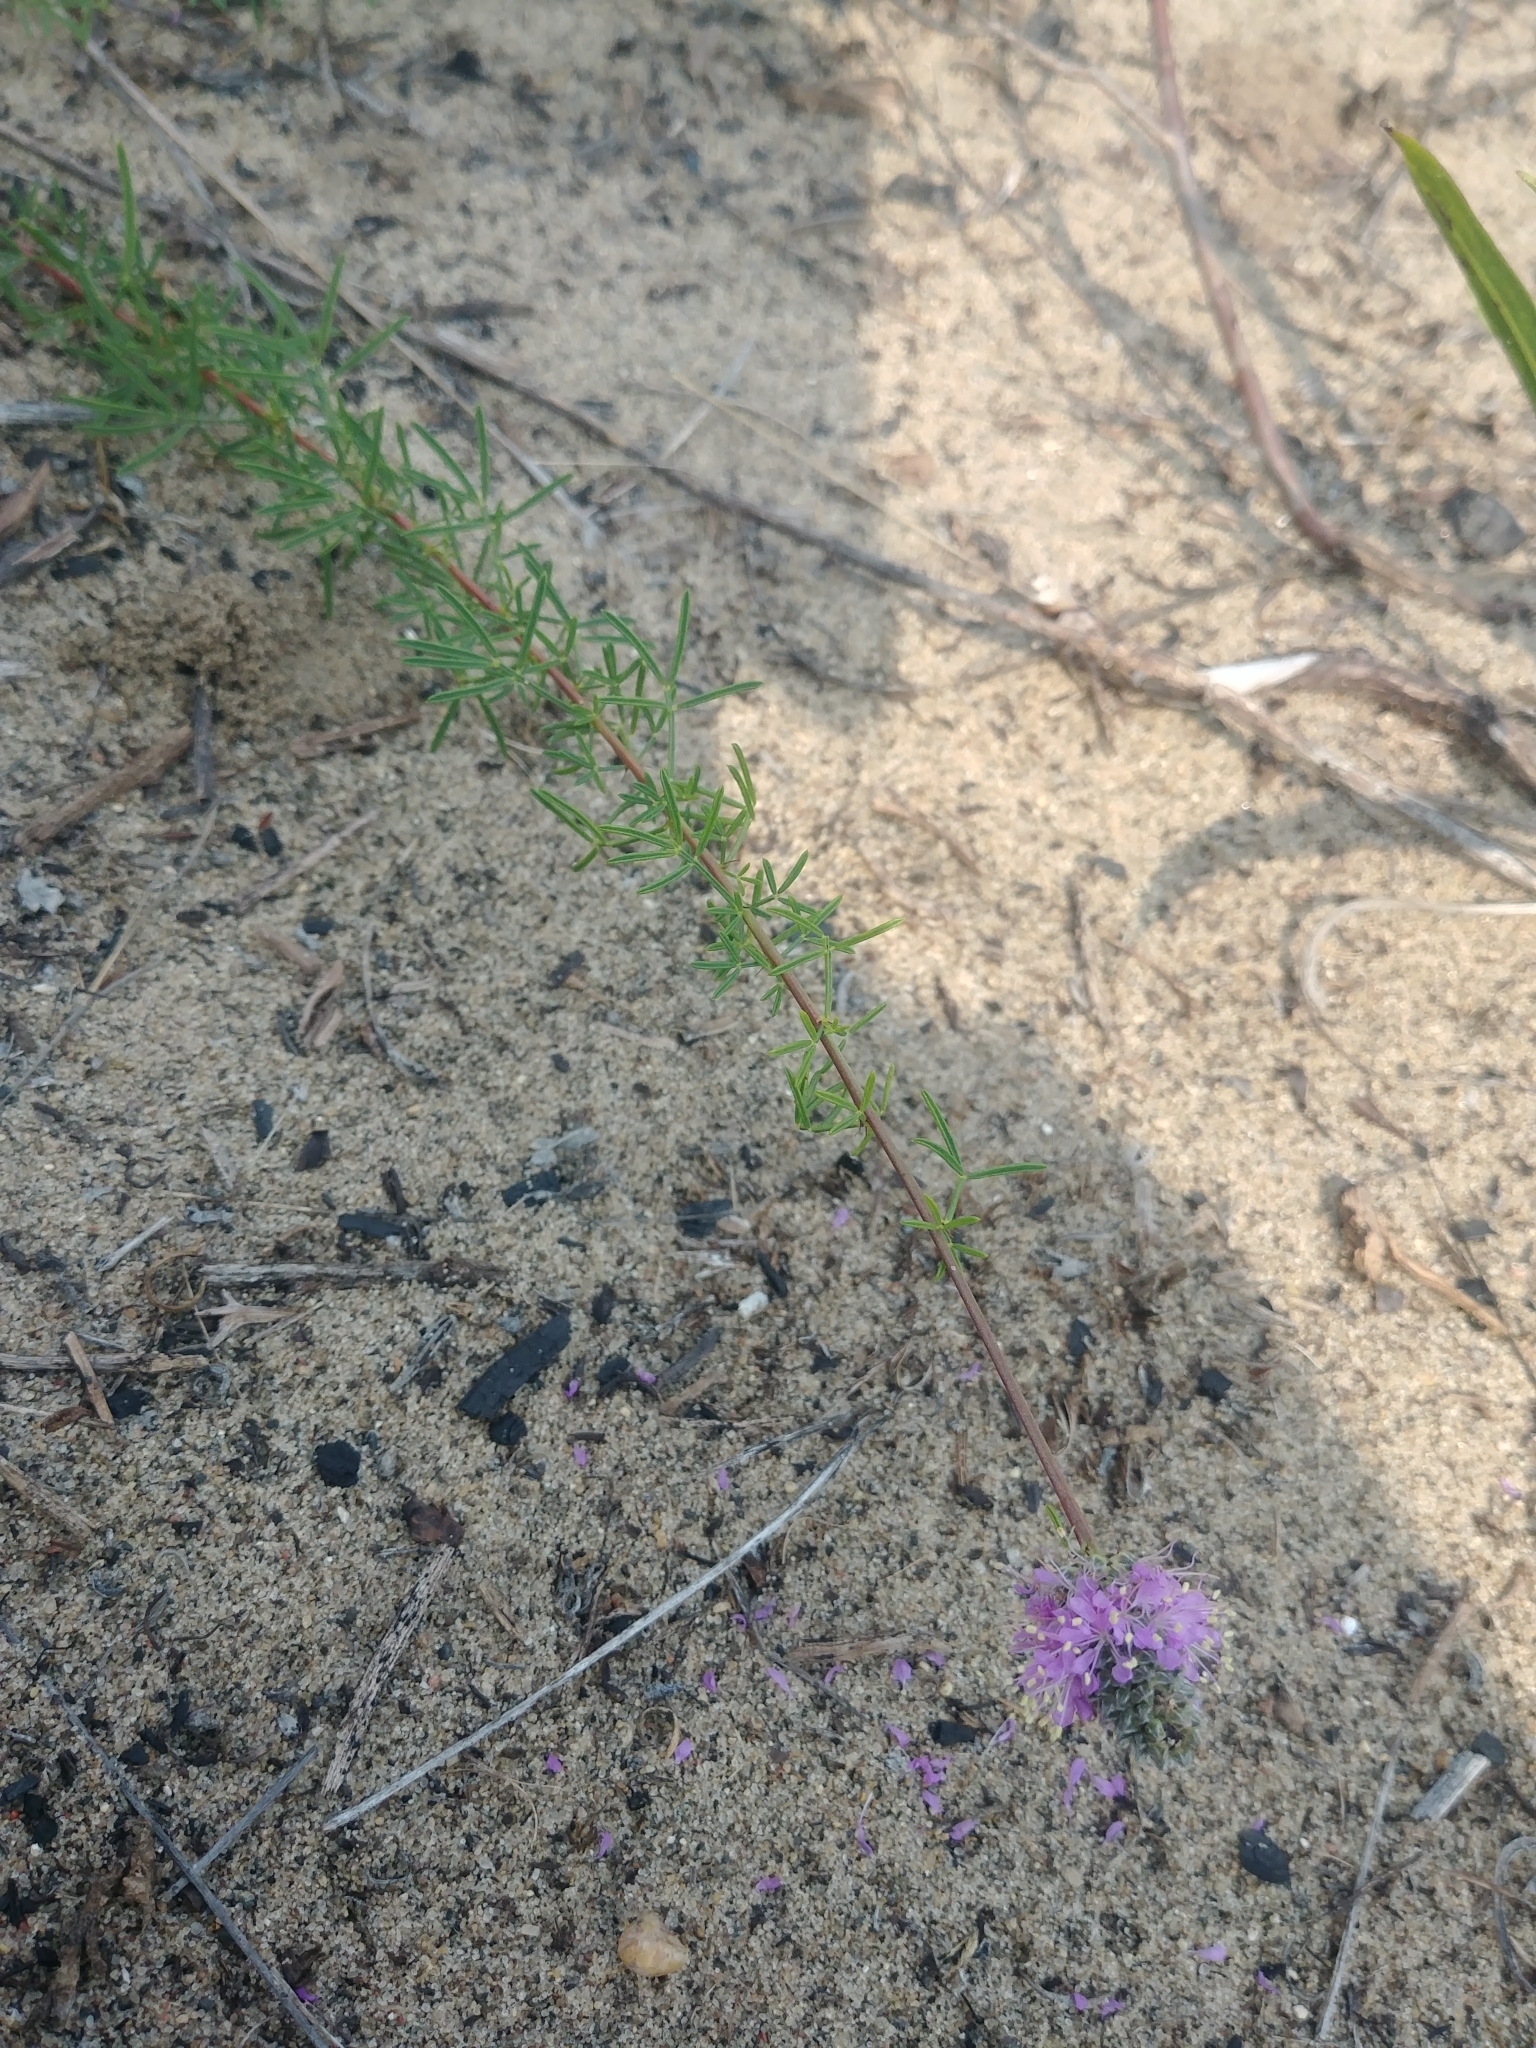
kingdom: Plantae
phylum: Tracheophyta
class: Magnoliopsida
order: Fabales
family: Fabaceae
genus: Dalea
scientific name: Dalea purpurea
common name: Purple prairie-clover
